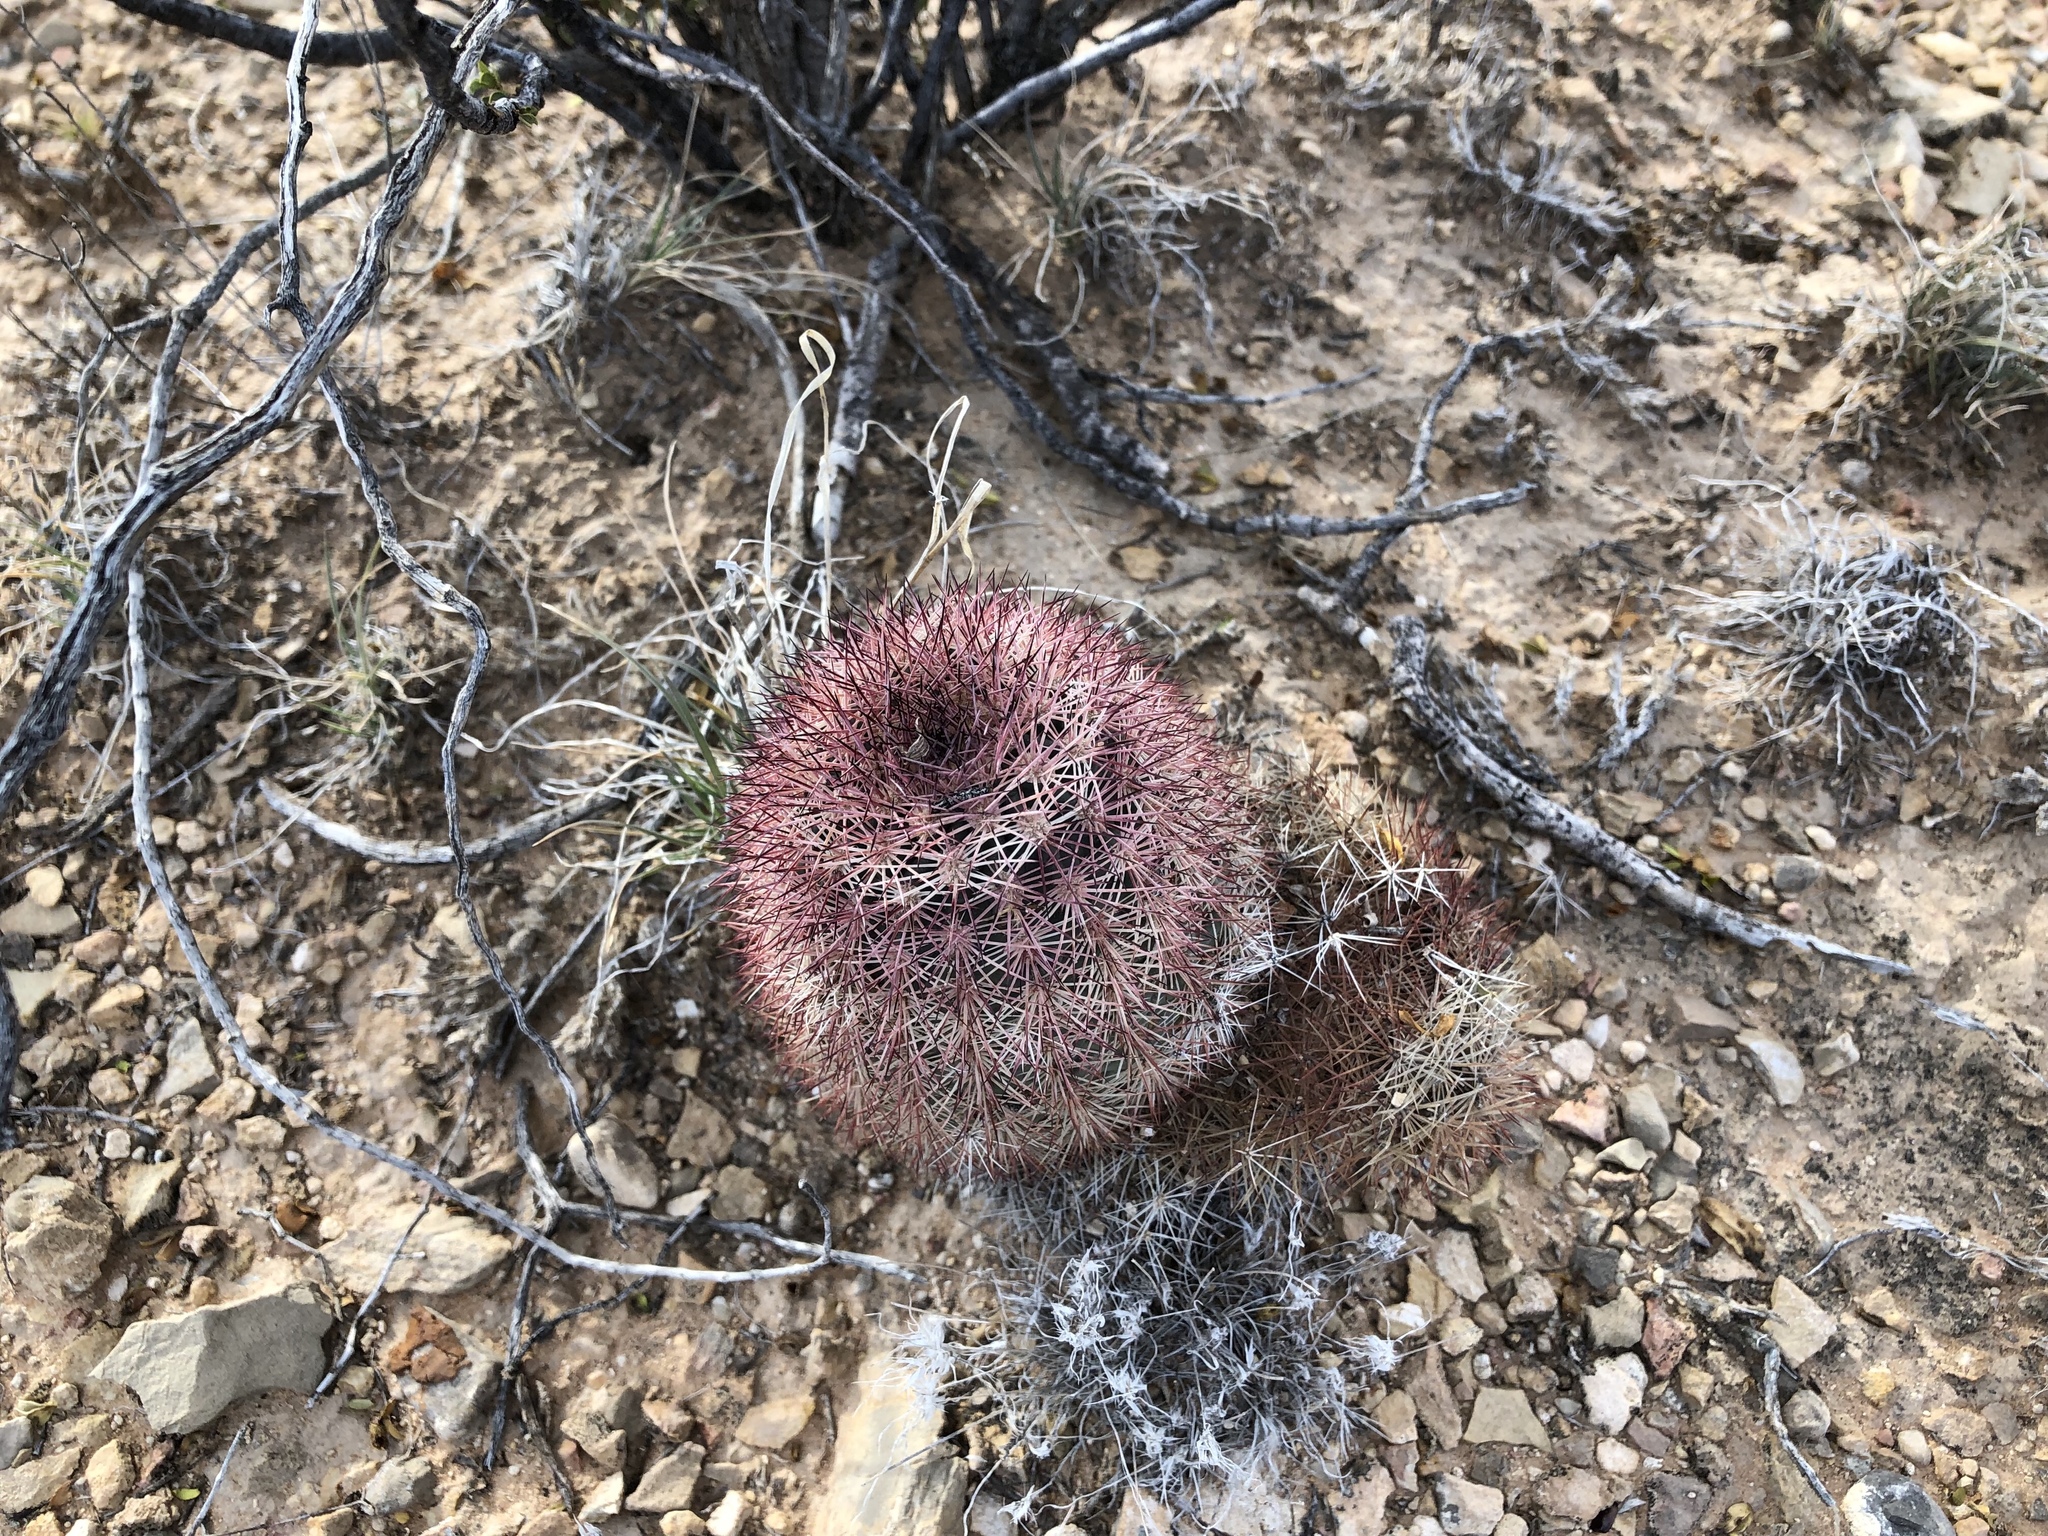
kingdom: Plantae
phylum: Tracheophyta
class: Magnoliopsida
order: Caryophyllales
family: Cactaceae
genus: Echinocereus
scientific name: Echinocereus dasyacanthus
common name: Spiny hedgehog cactus
